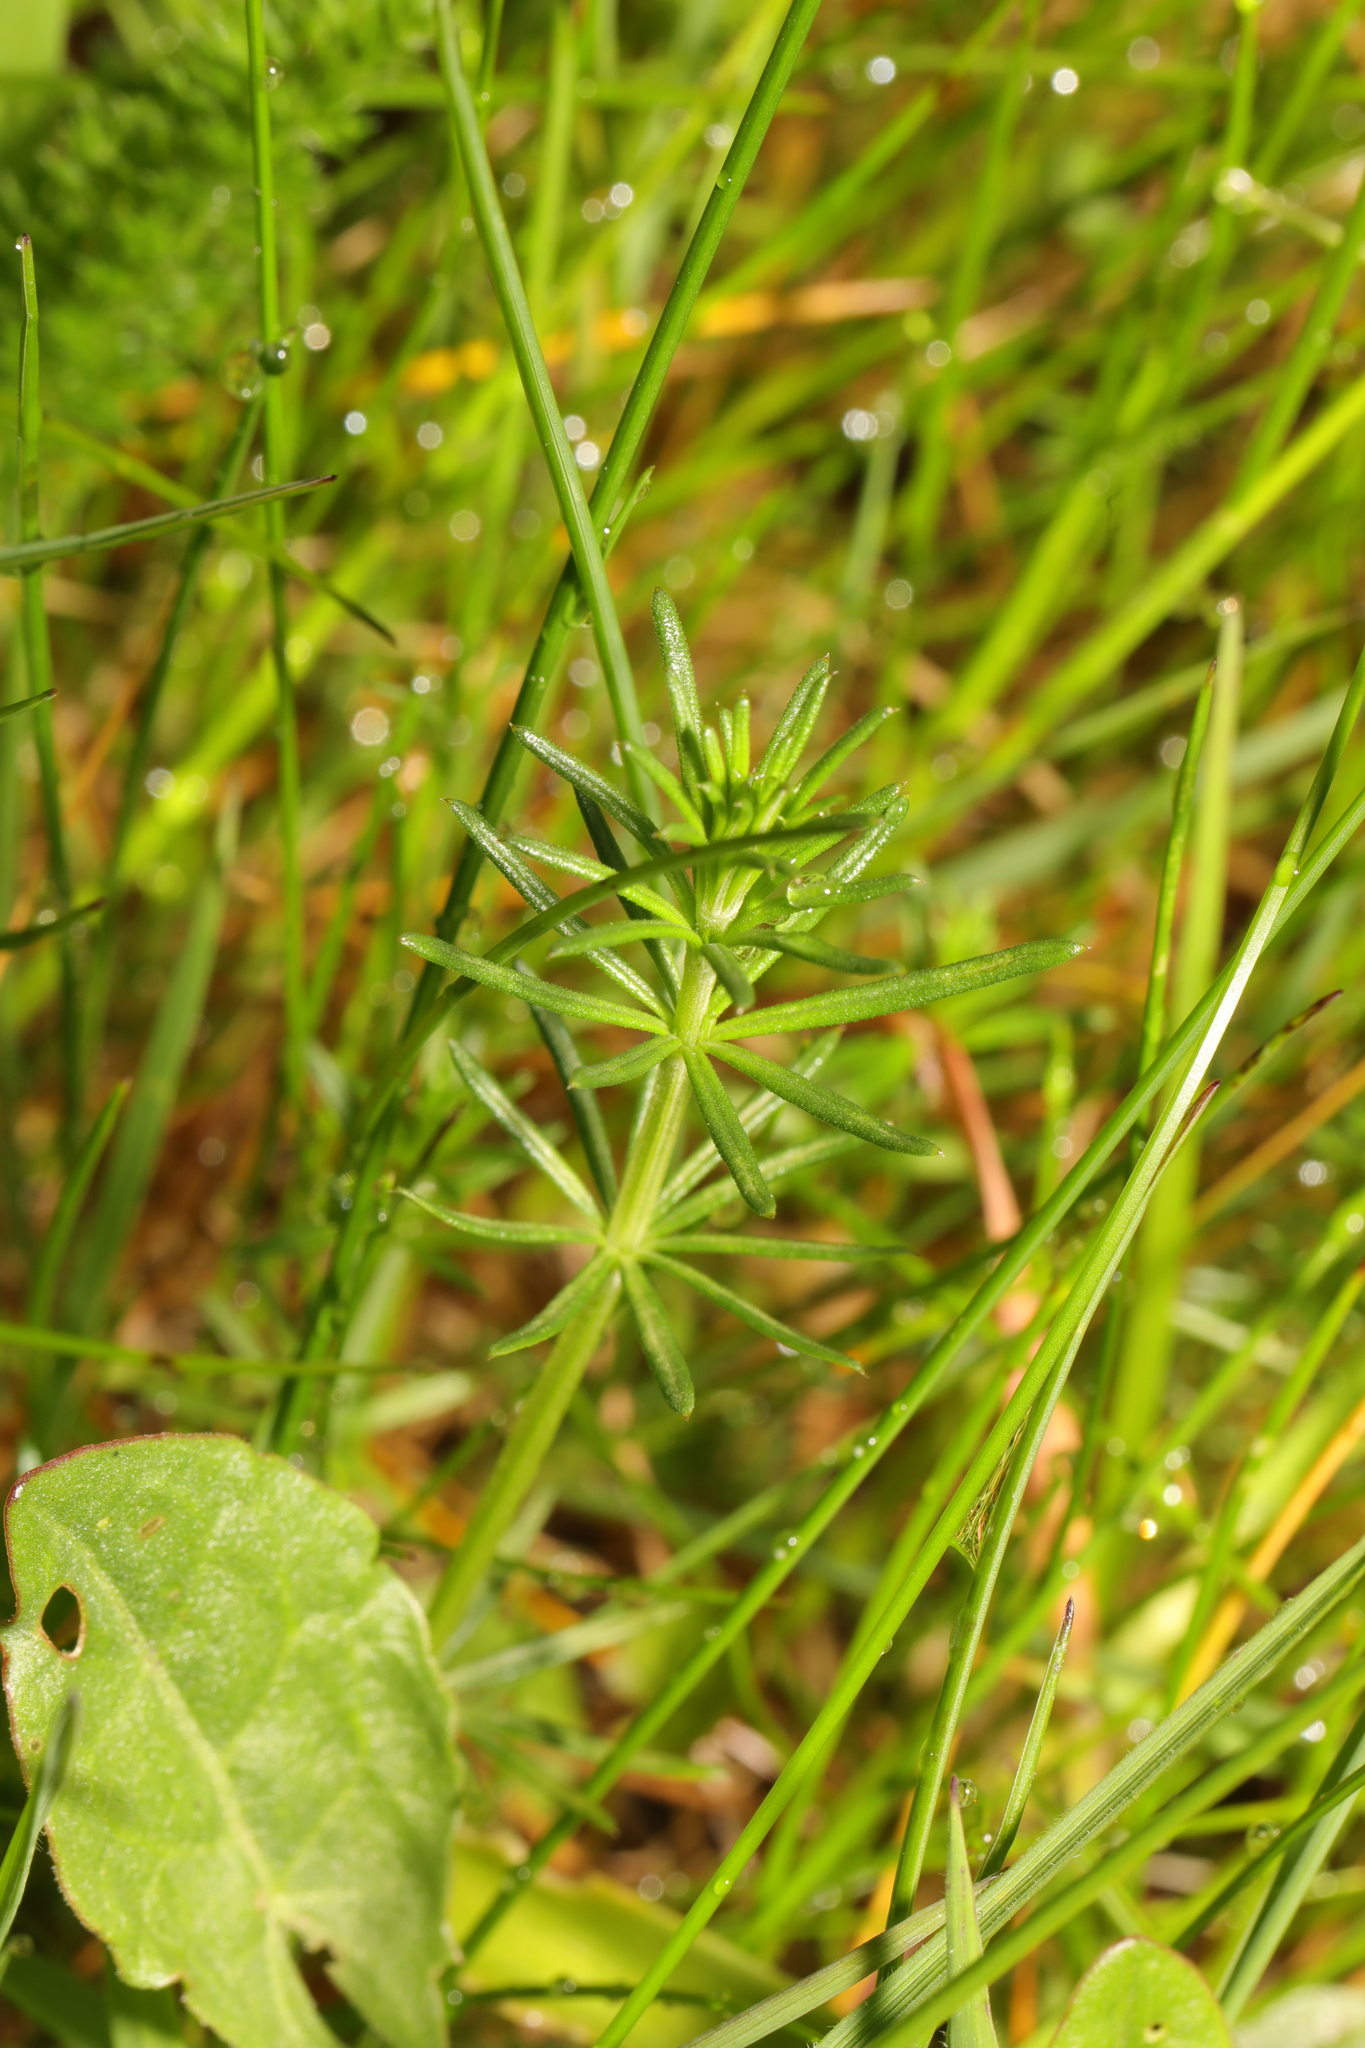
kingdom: Plantae
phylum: Tracheophyta
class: Magnoliopsida
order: Gentianales
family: Rubiaceae
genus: Galium
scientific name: Galium verum
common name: Lady's bedstraw
